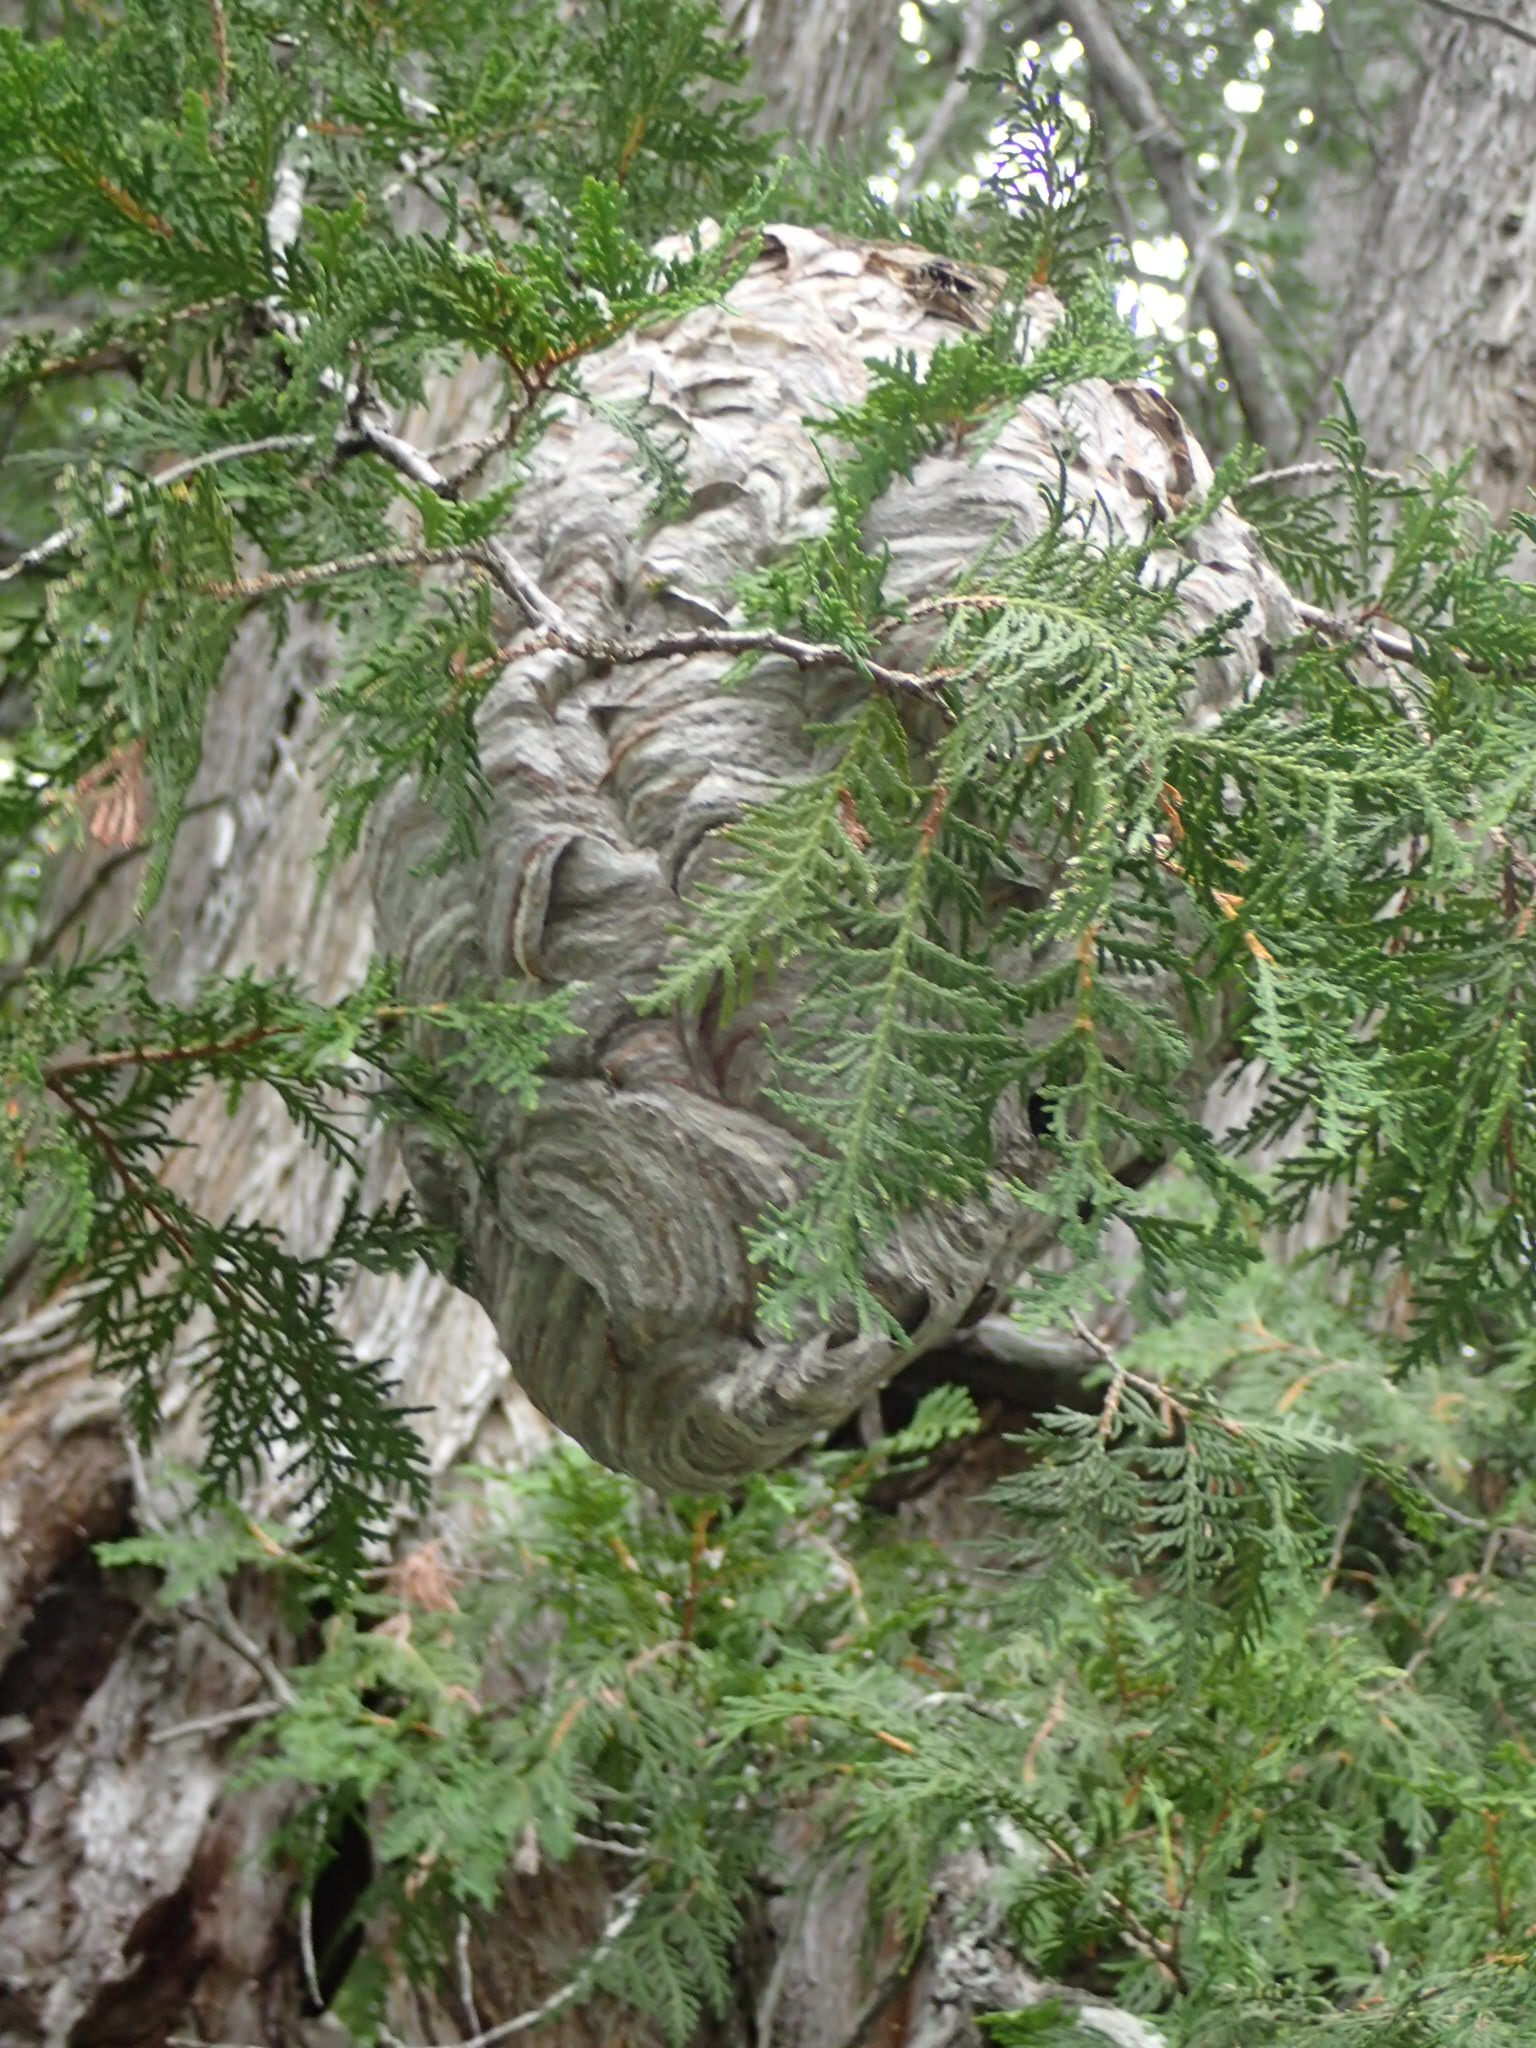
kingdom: Animalia
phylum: Arthropoda
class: Insecta
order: Hymenoptera
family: Vespidae
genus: Dolichovespula
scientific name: Dolichovespula maculata
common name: Bald-faced hornet
